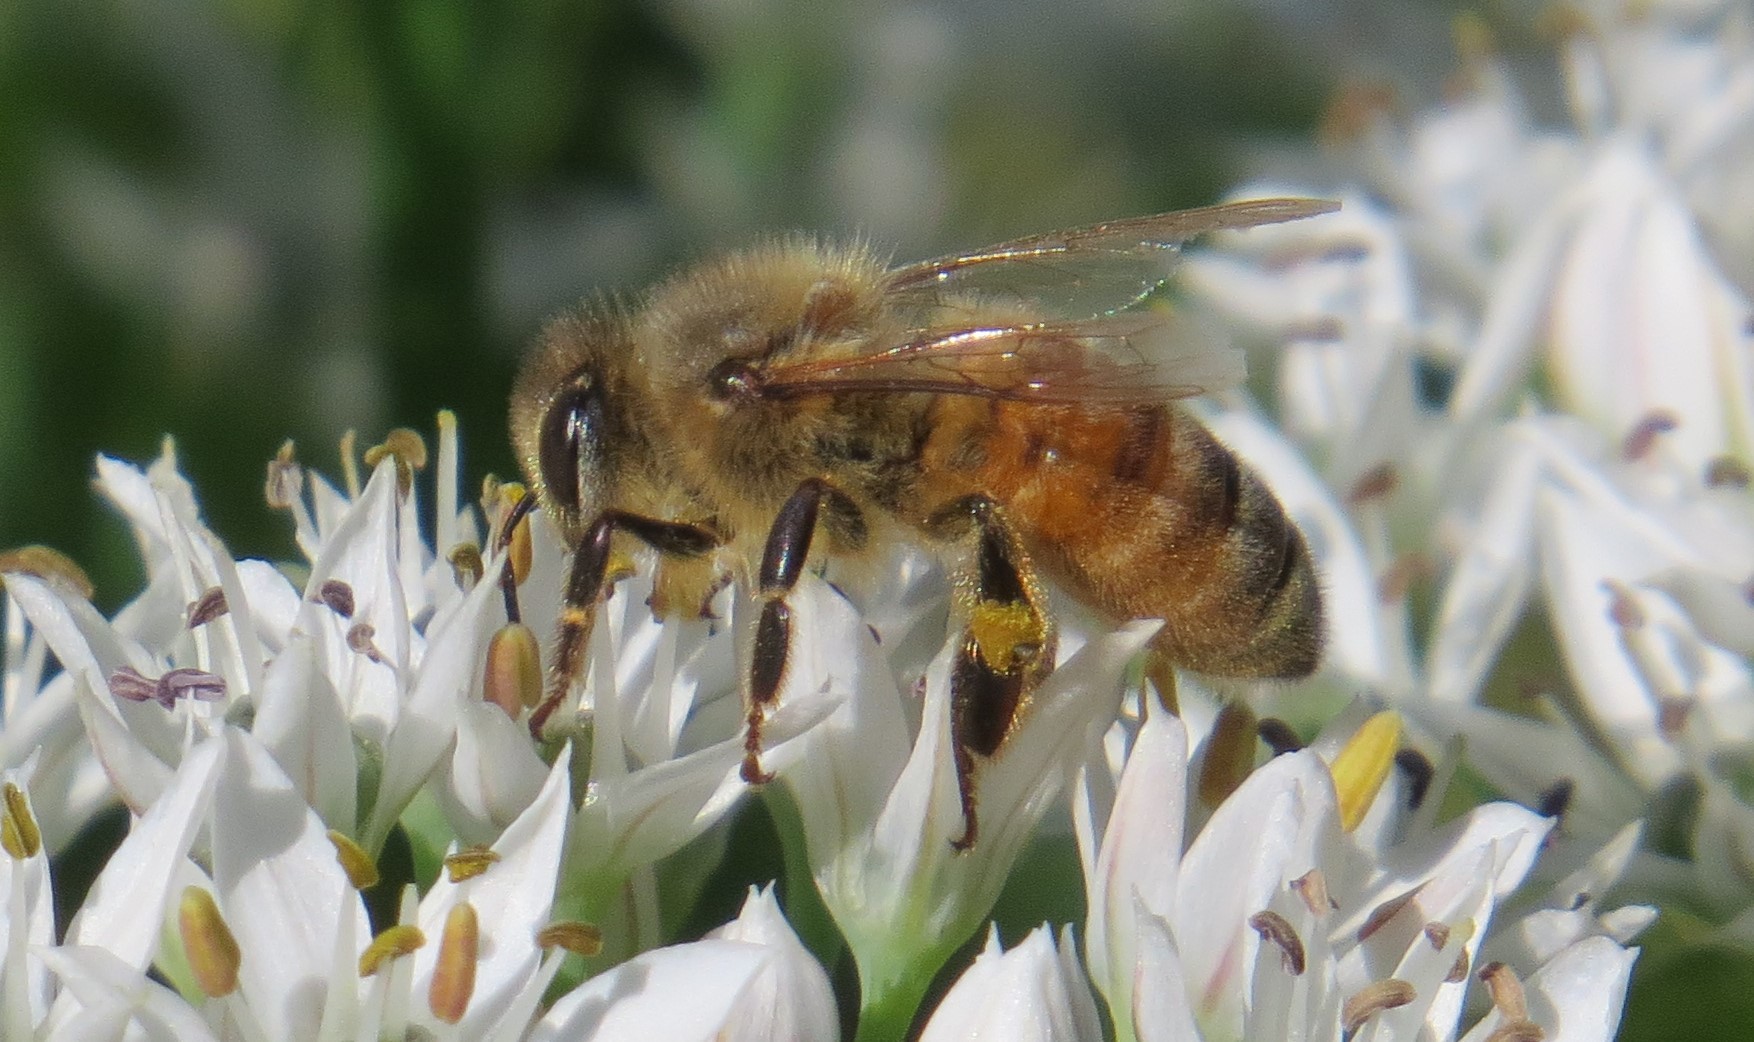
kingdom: Animalia
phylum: Arthropoda
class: Insecta
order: Hymenoptera
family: Apidae
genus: Apis
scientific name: Apis mellifera
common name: Honey bee
